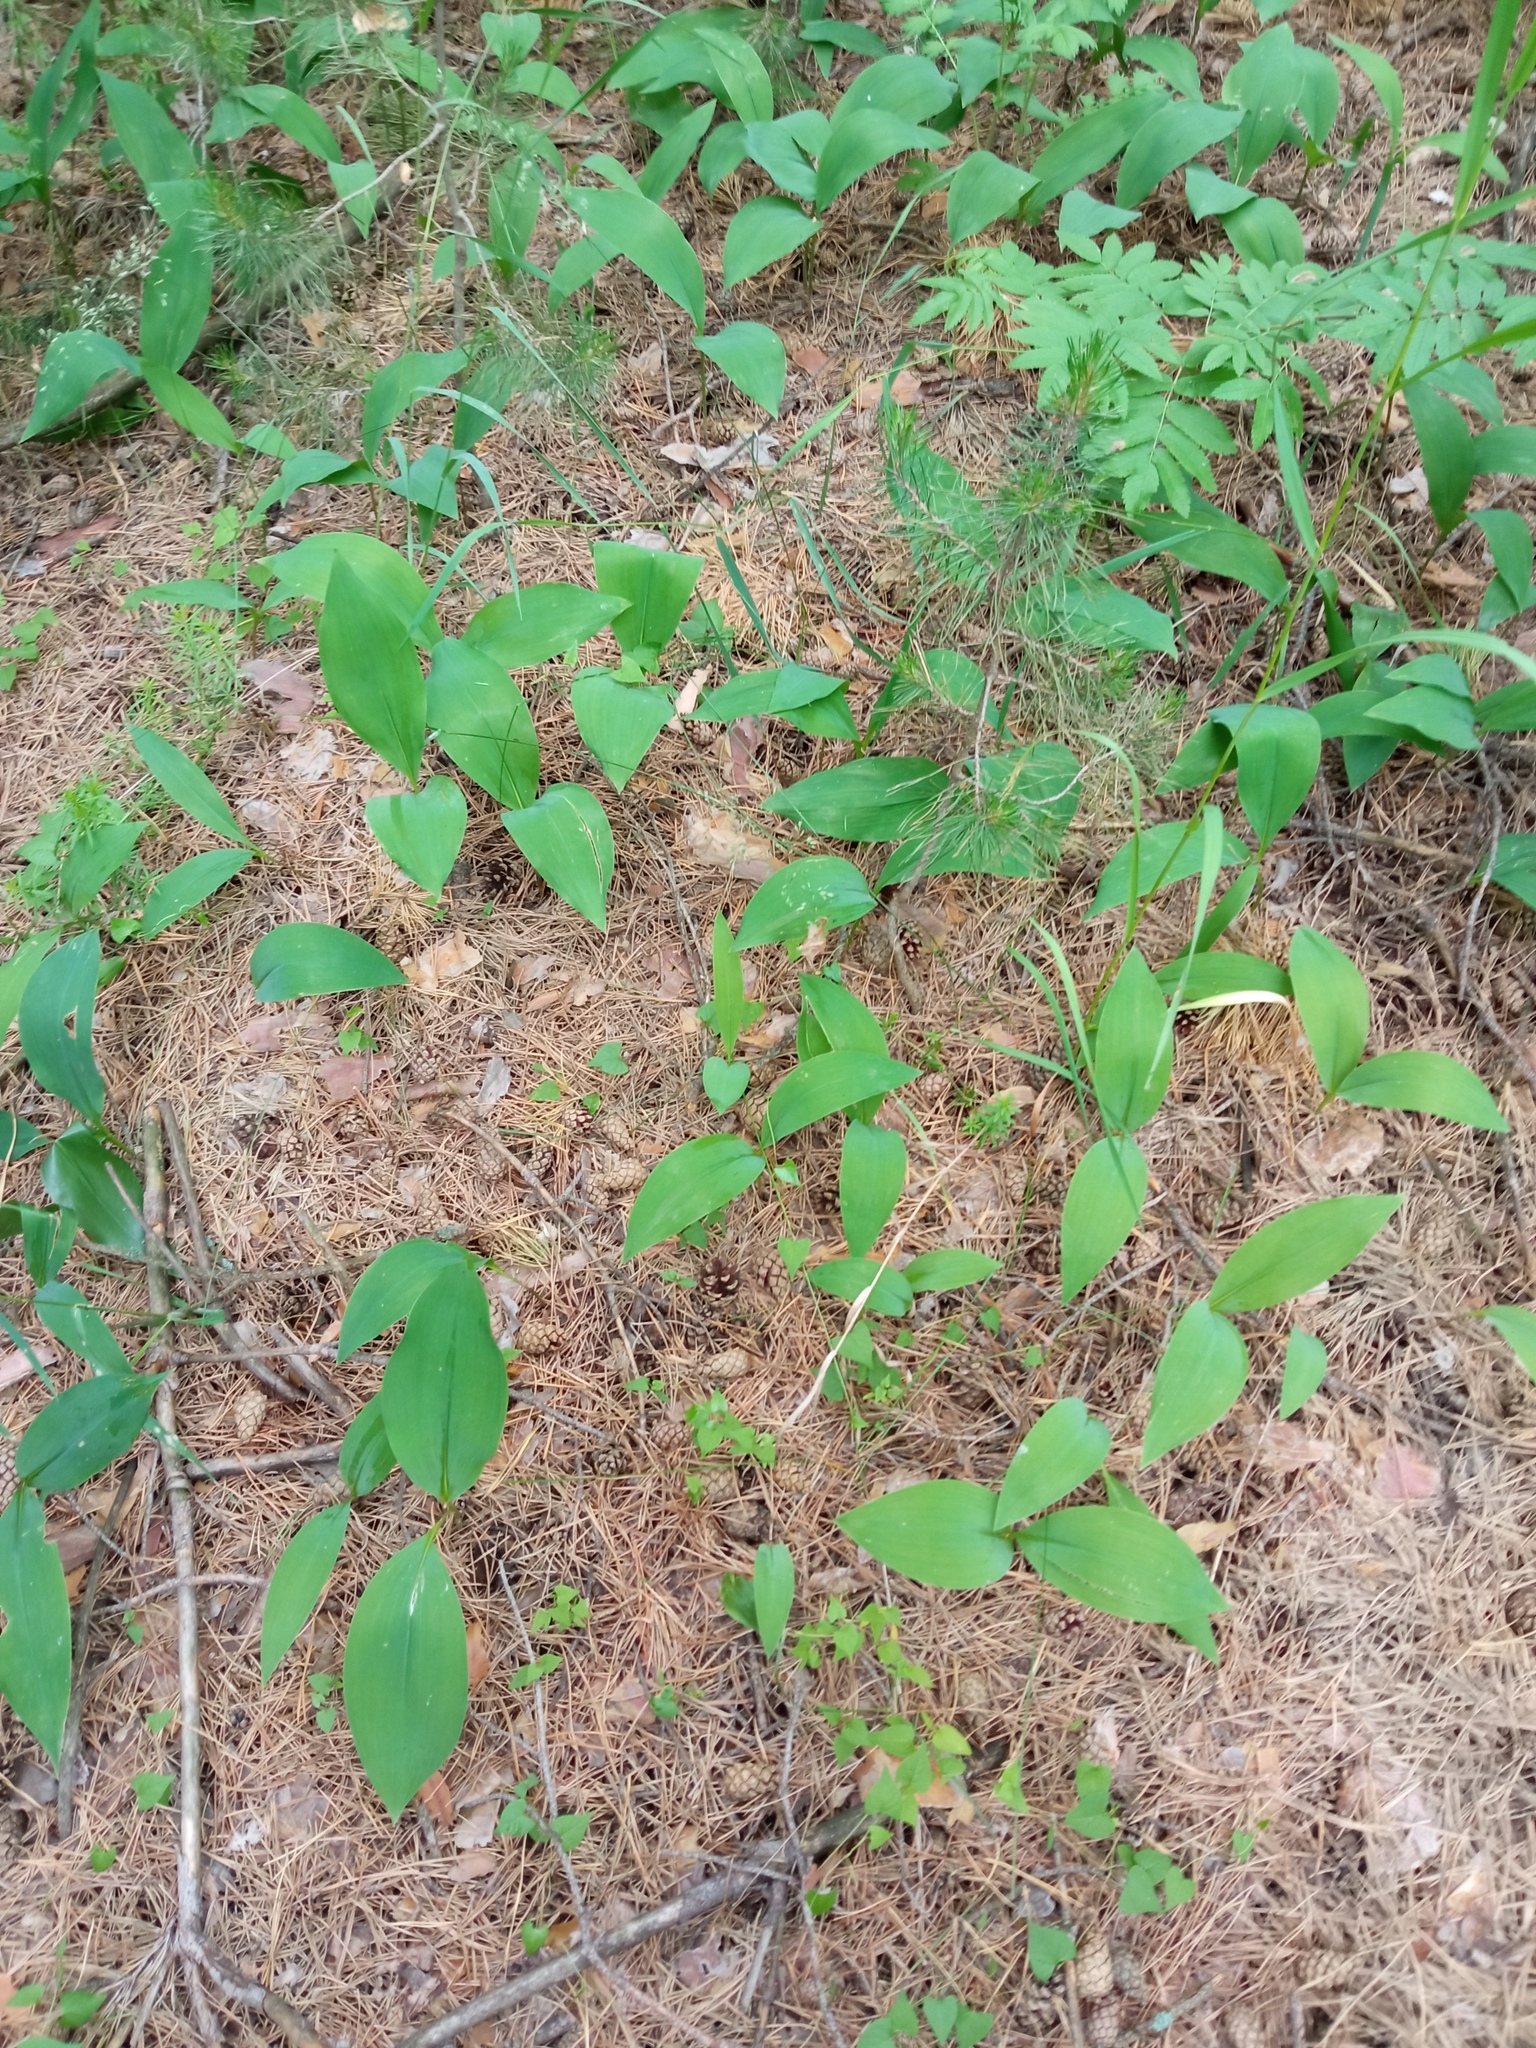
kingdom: Plantae
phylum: Tracheophyta
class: Liliopsida
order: Asparagales
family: Asparagaceae
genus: Convallaria
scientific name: Convallaria majalis
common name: Lily-of-the-valley
